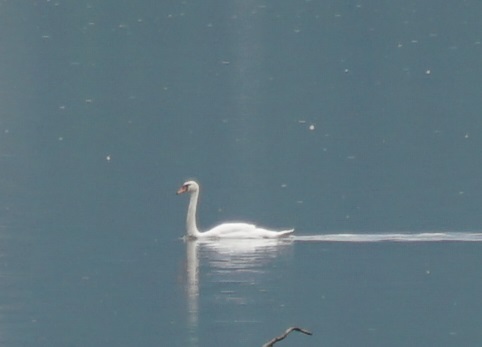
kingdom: Animalia
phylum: Chordata
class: Aves
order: Anseriformes
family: Anatidae
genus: Cygnus
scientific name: Cygnus olor
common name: Mute swan
